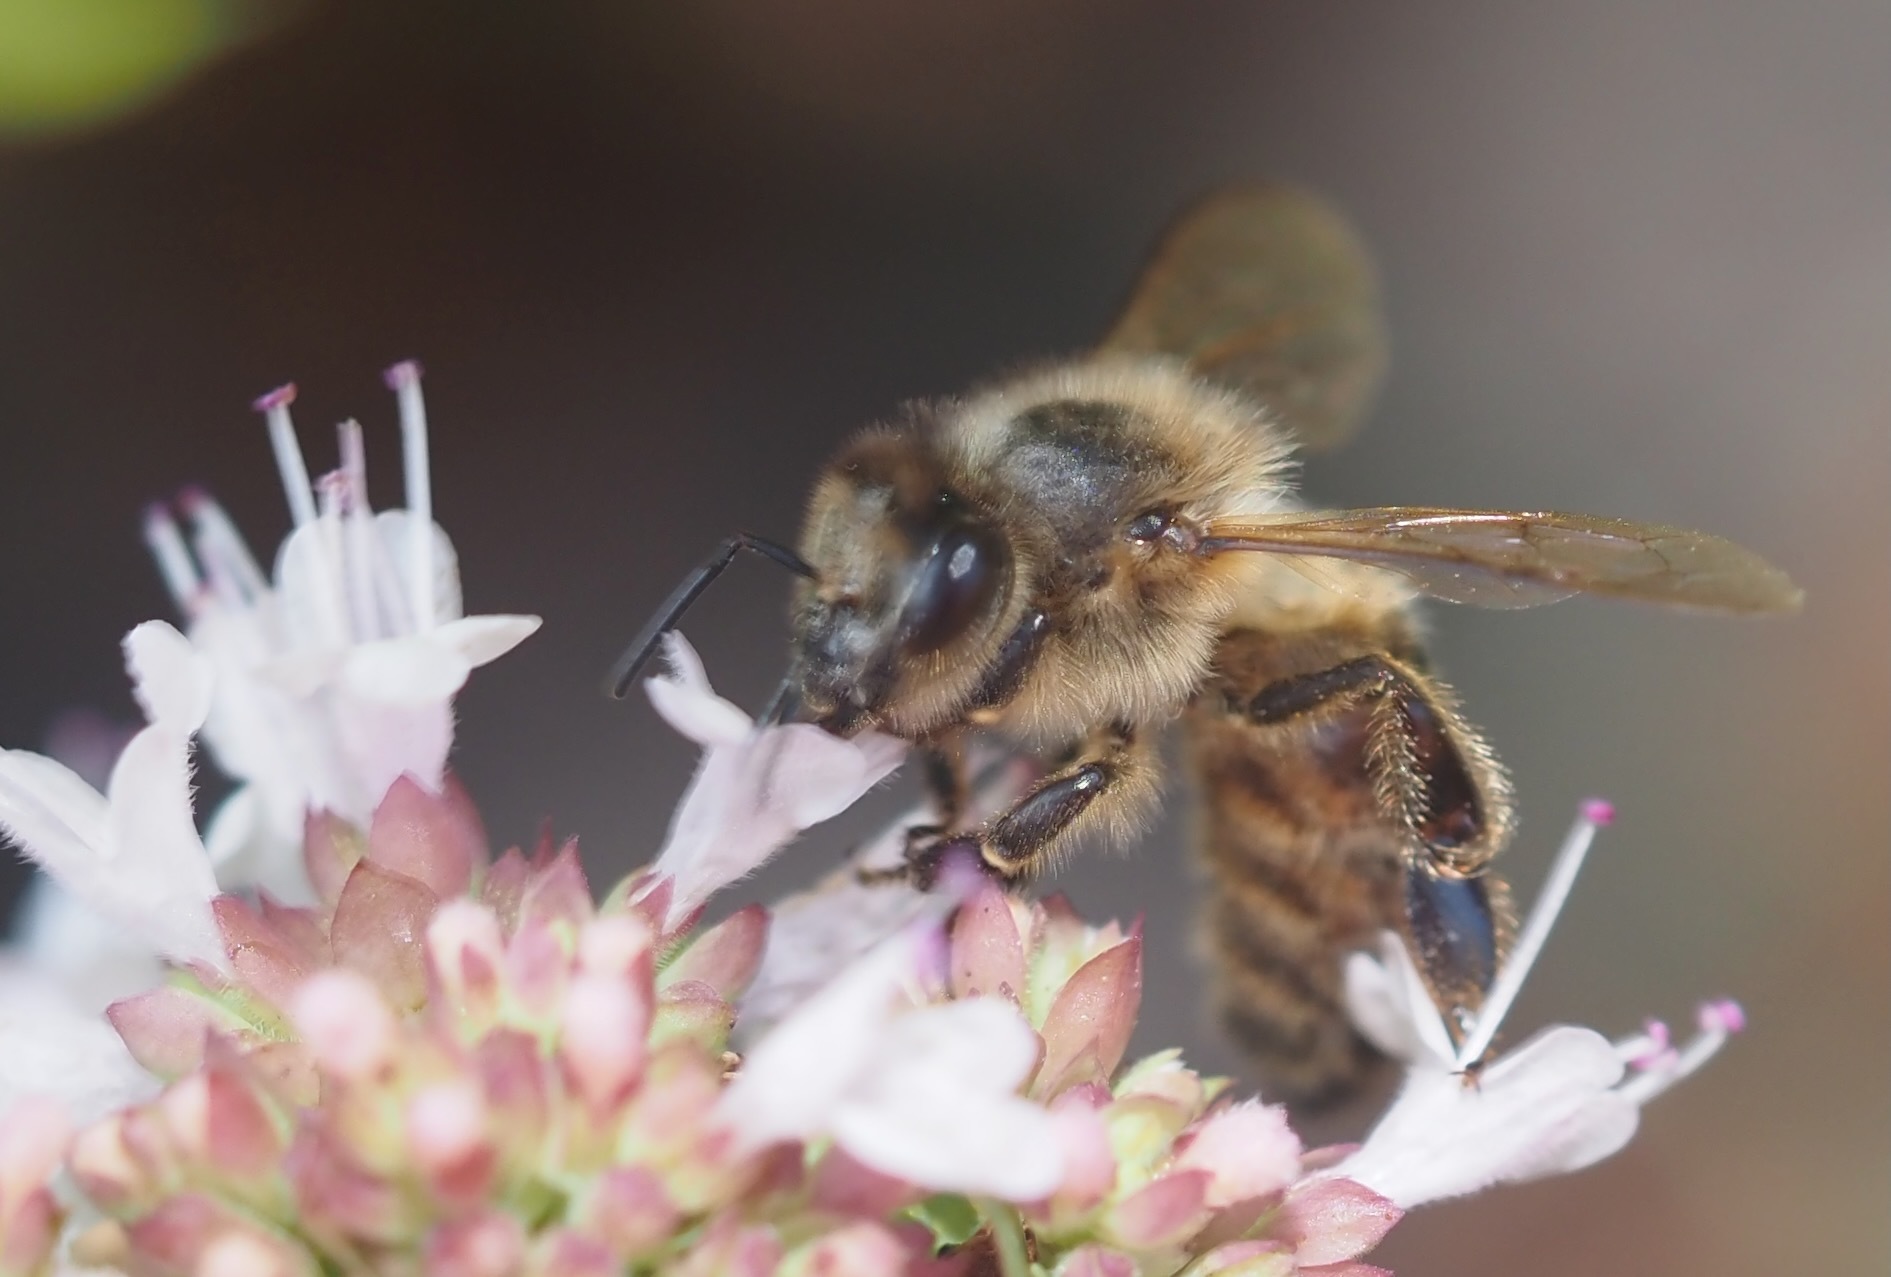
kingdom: Animalia
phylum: Arthropoda
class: Insecta
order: Hymenoptera
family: Apidae
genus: Apis
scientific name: Apis mellifera
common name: Honey bee
